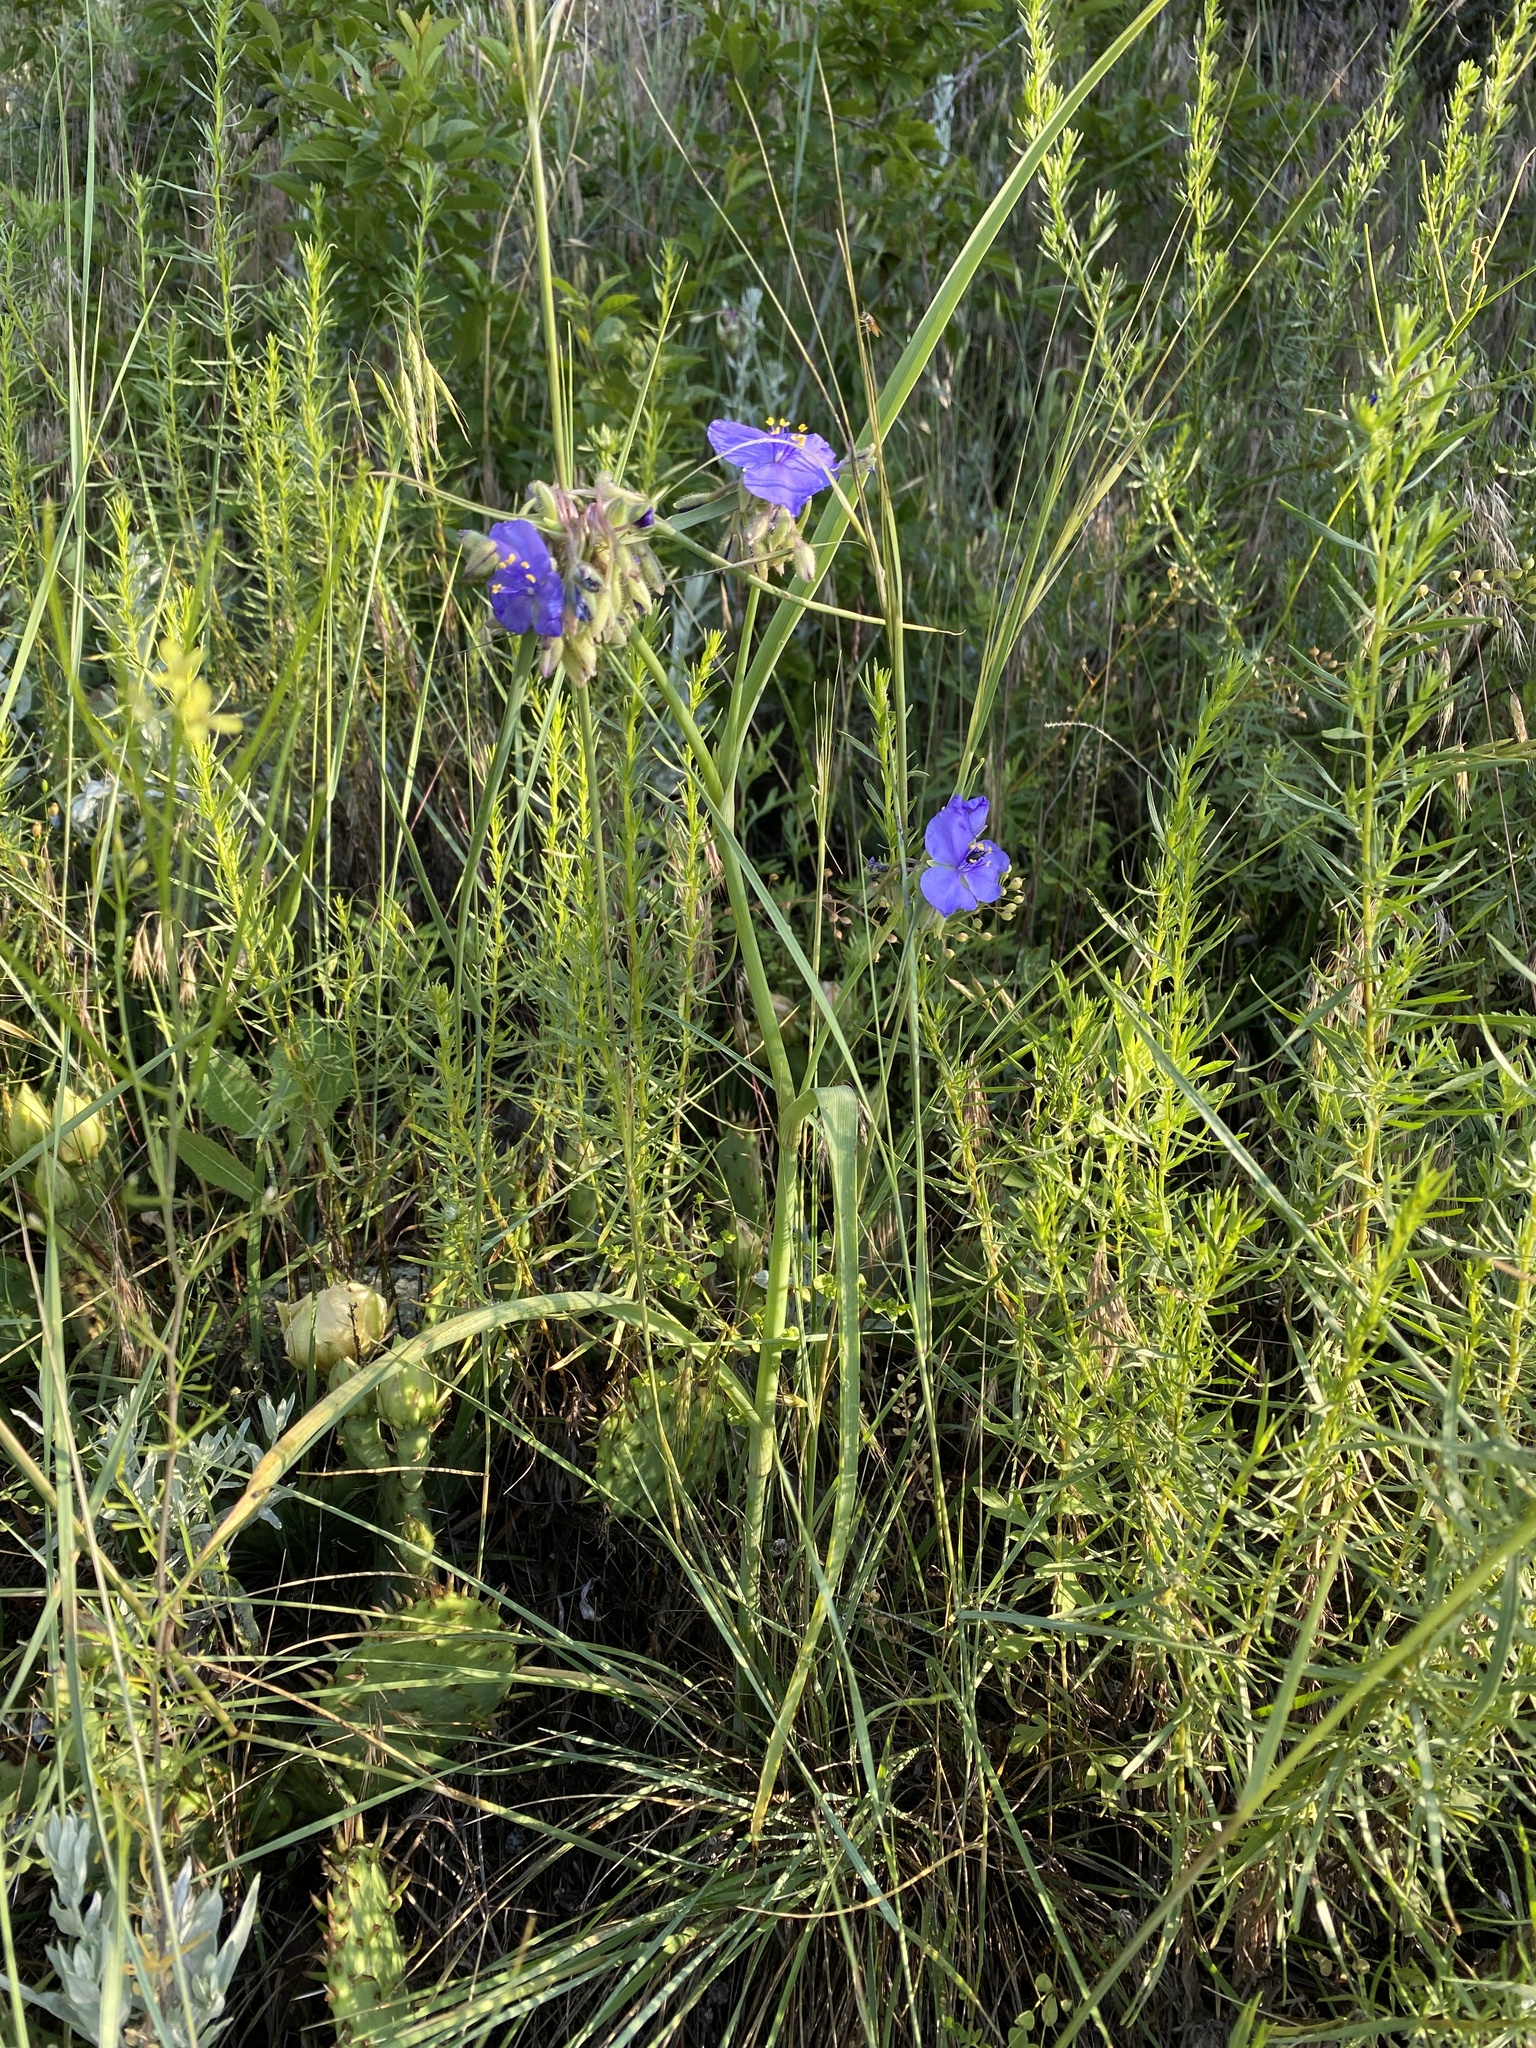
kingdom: Plantae
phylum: Tracheophyta
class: Liliopsida
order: Commelinales
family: Commelinaceae
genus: Tradescantia
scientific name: Tradescantia occidentalis
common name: Prairie spiderwort
